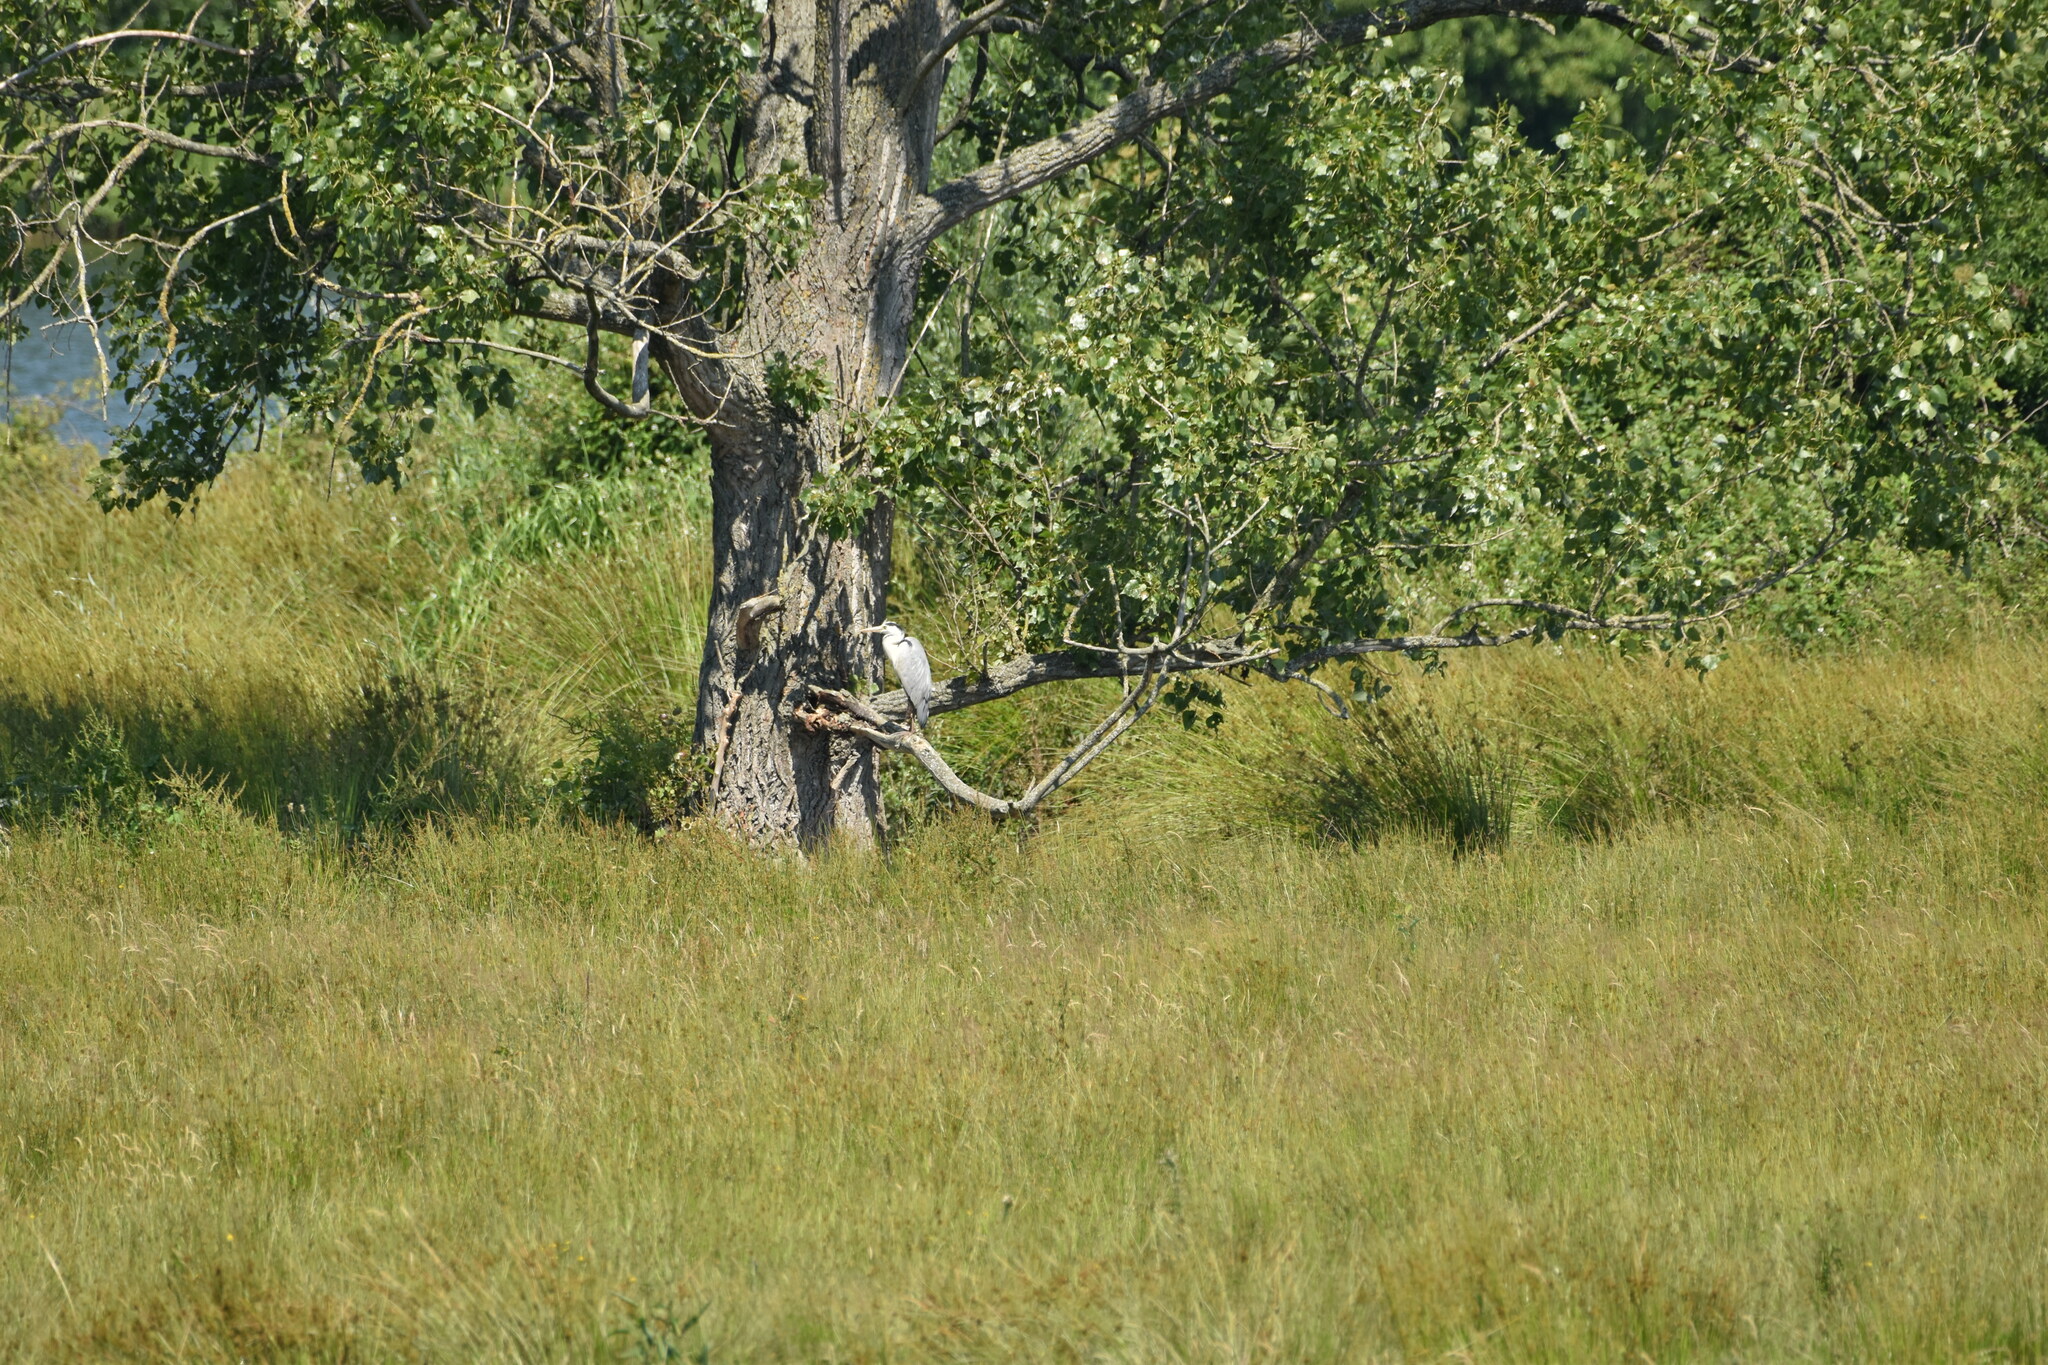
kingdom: Animalia
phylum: Chordata
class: Aves
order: Pelecaniformes
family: Ardeidae
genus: Ardea
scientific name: Ardea cinerea
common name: Grey heron
